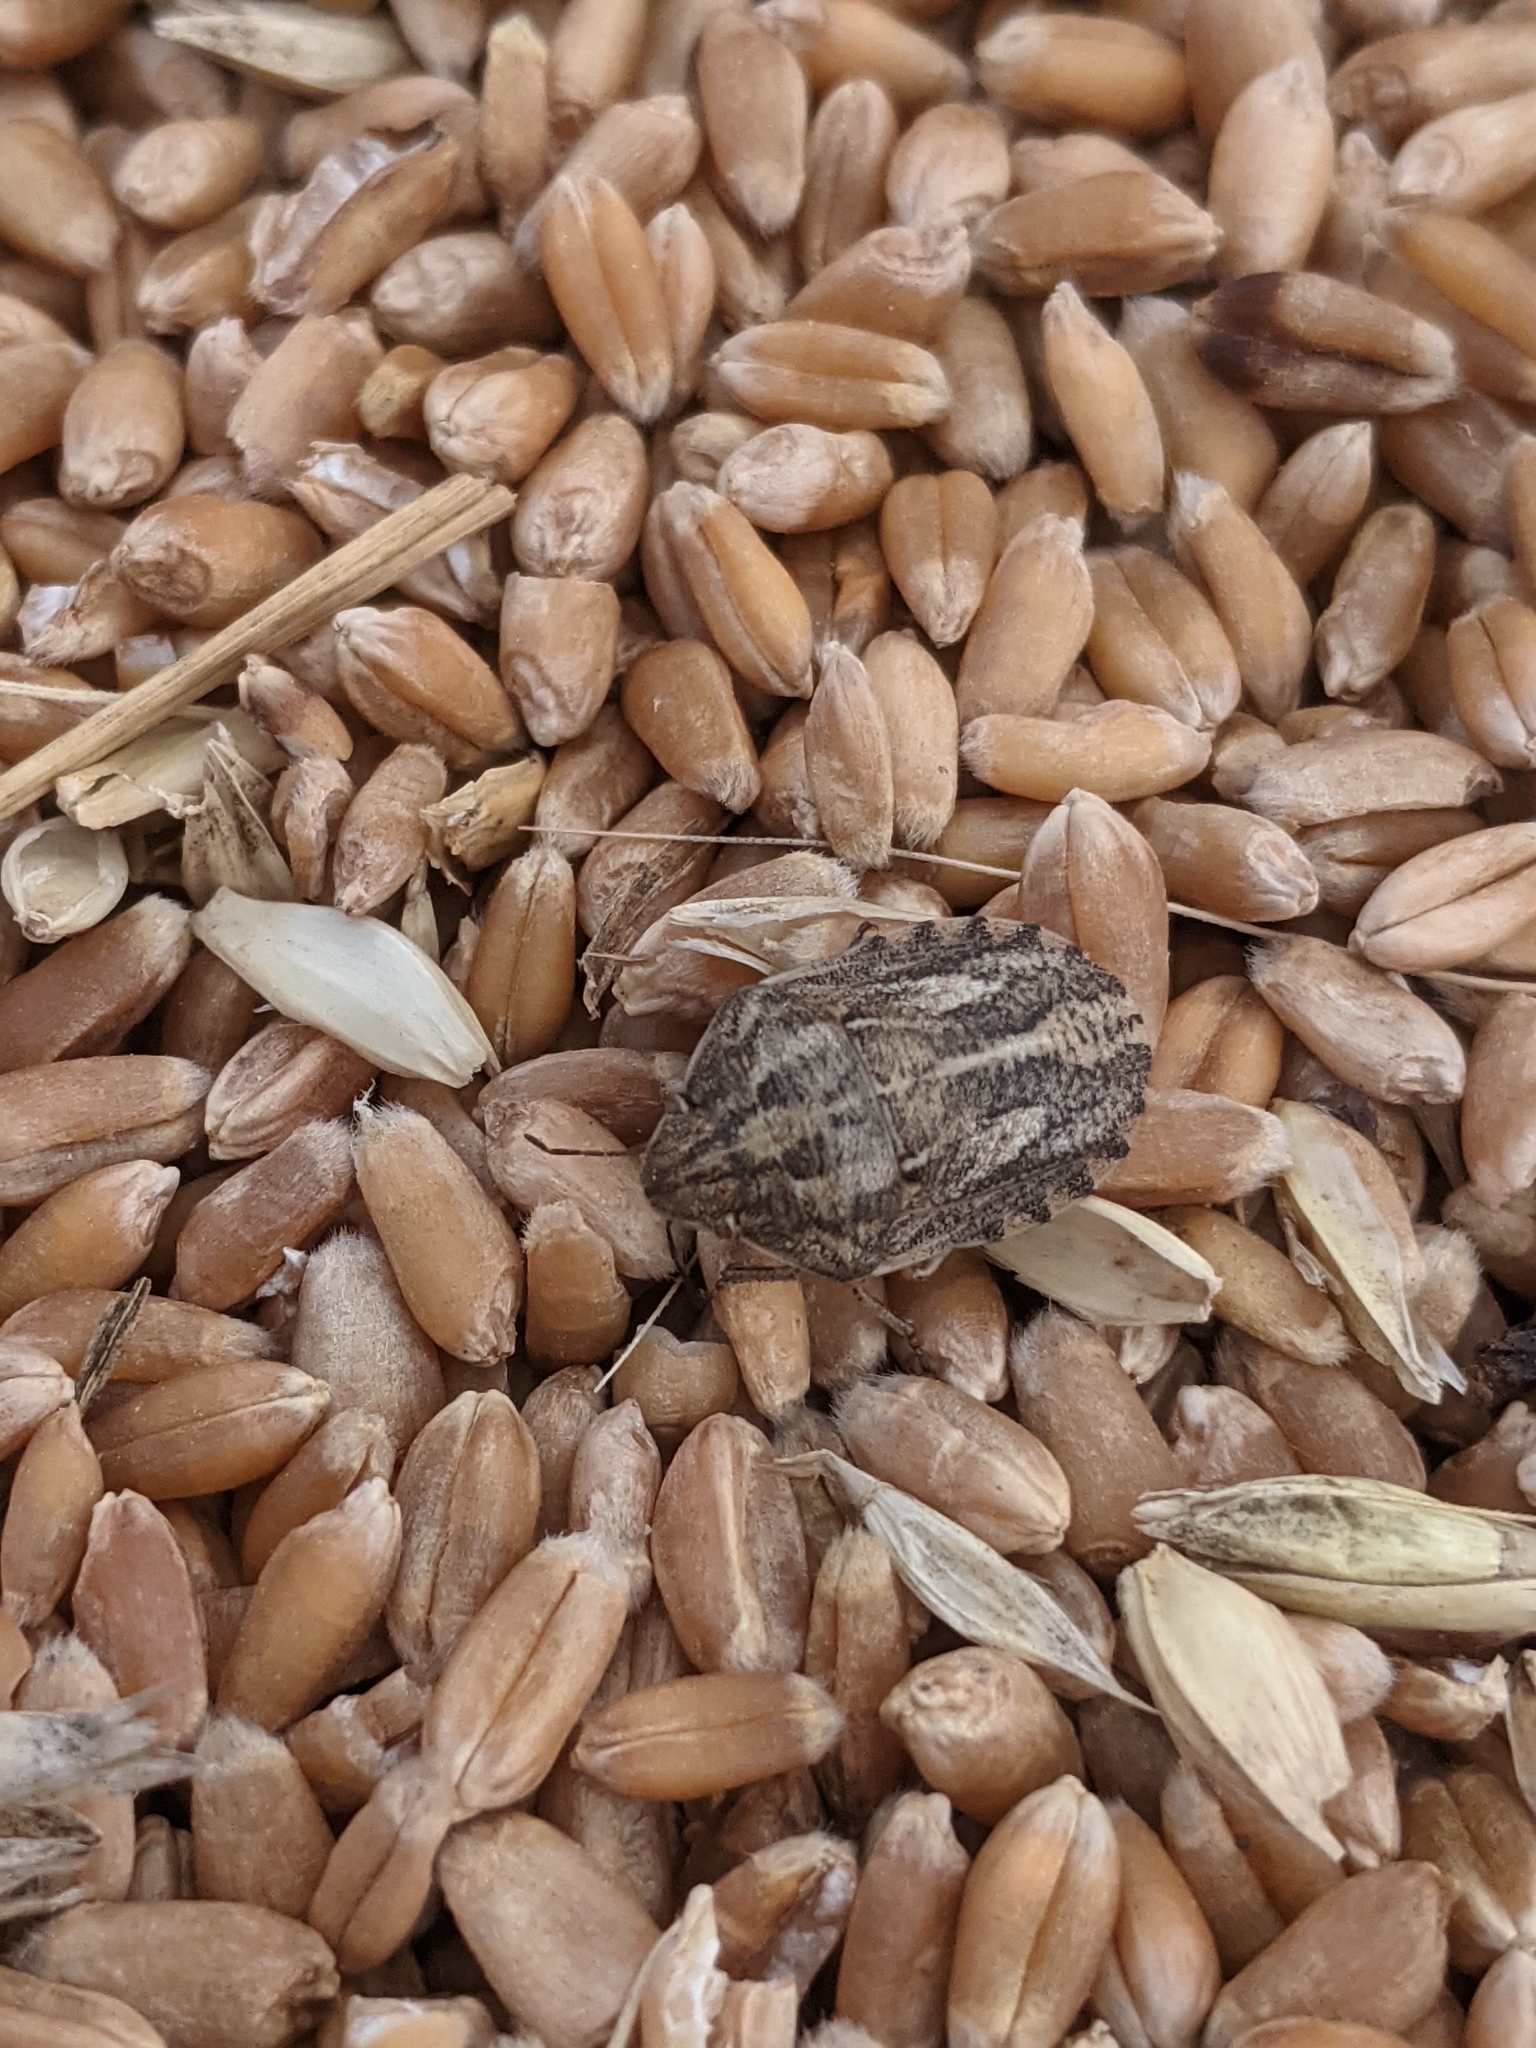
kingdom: Animalia
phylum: Arthropoda
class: Insecta
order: Hemiptera
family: Scutelleridae
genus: Eurygaster
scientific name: Eurygaster testudinaria
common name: Tortoise bug
